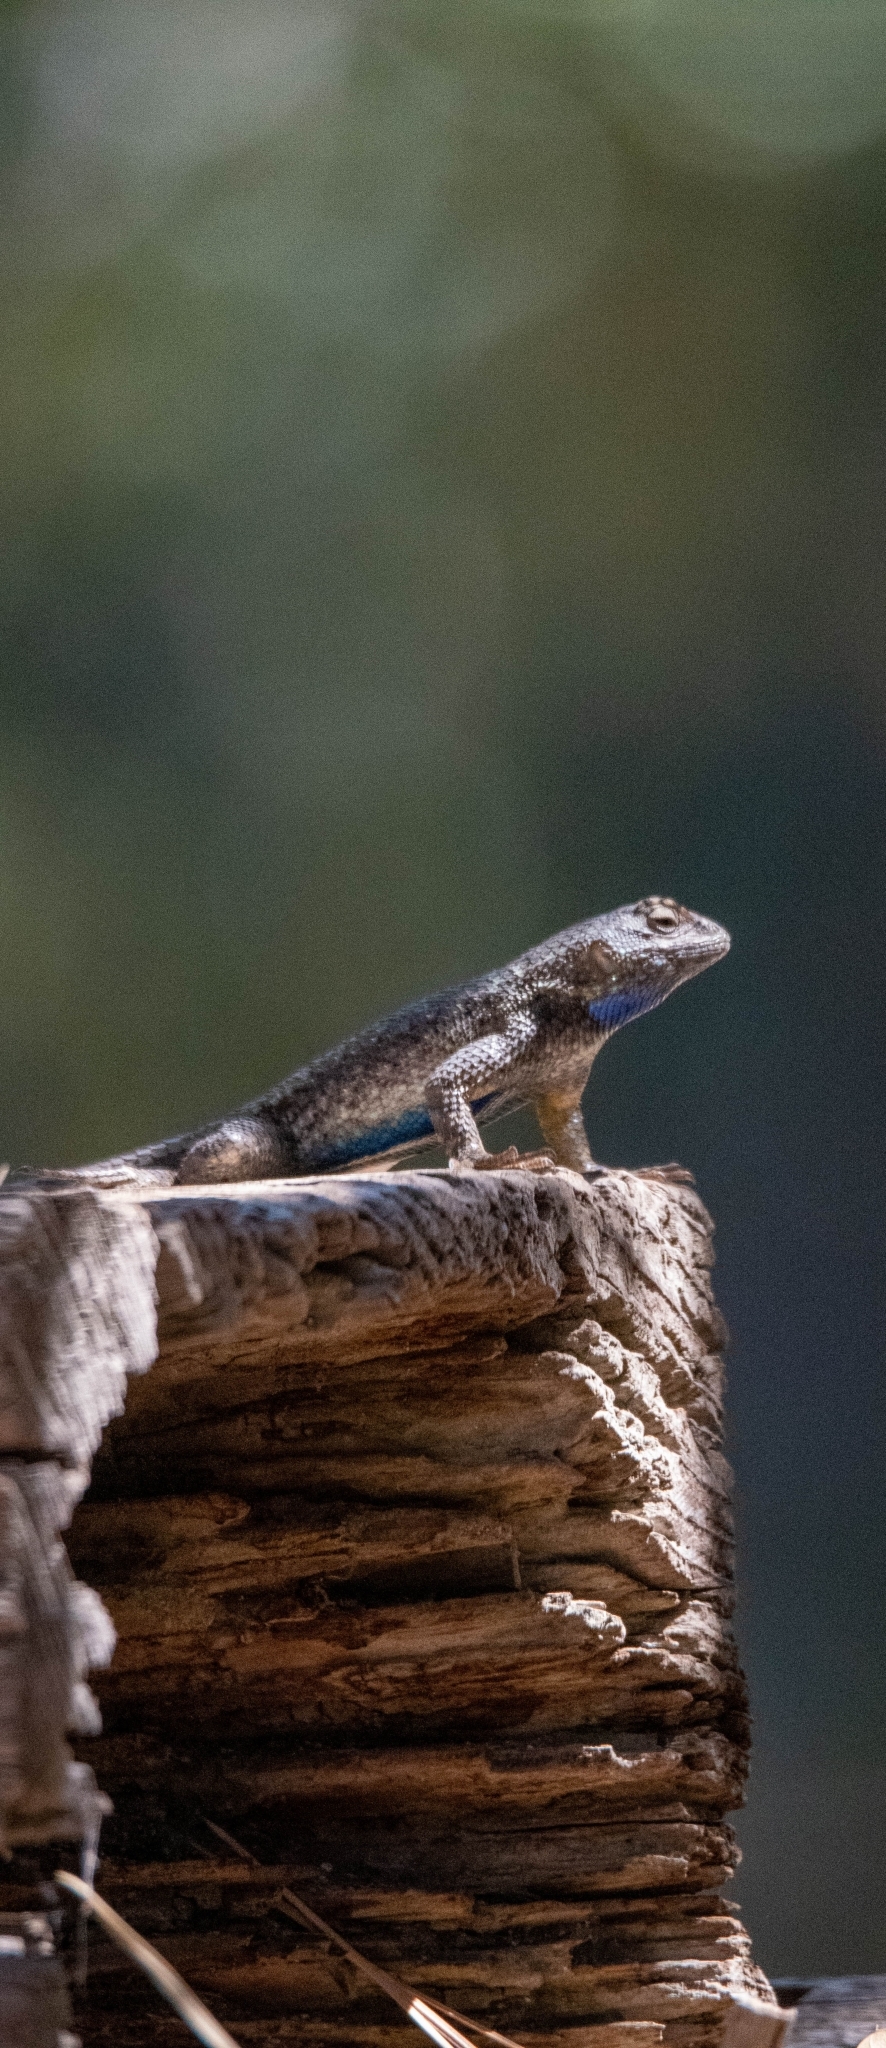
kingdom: Animalia
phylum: Chordata
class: Squamata
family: Phrynosomatidae
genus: Sceloporus
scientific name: Sceloporus occidentalis
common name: Western fence lizard
